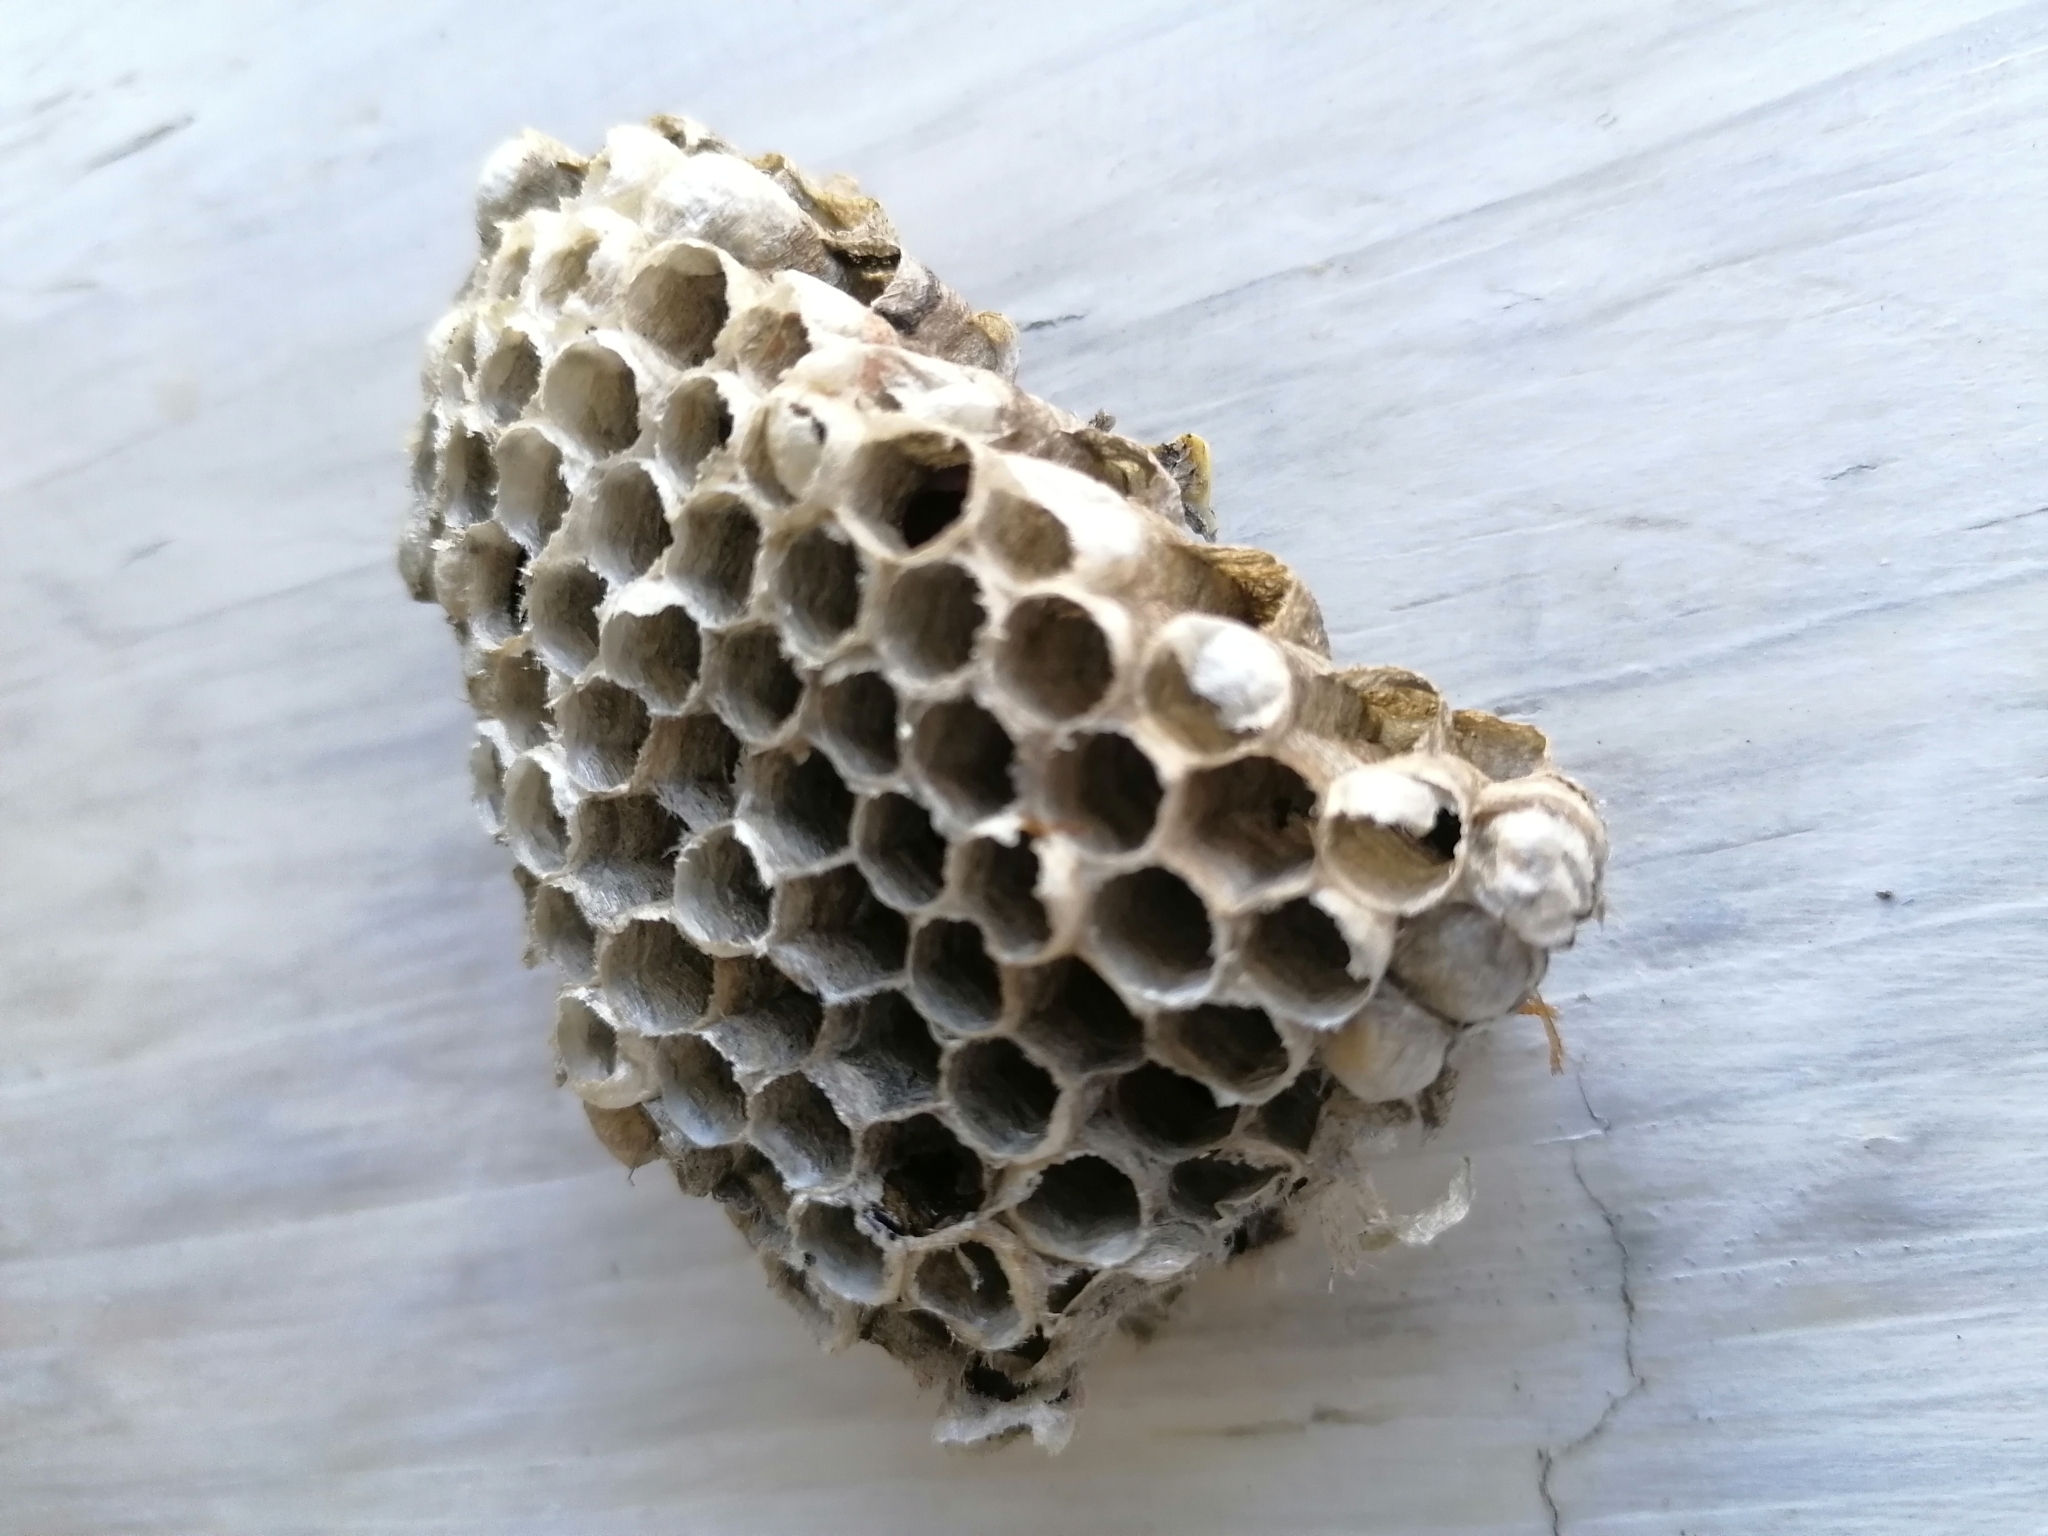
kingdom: Animalia
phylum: Arthropoda
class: Insecta
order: Hymenoptera
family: Eumenidae
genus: Polistes
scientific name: Polistes
